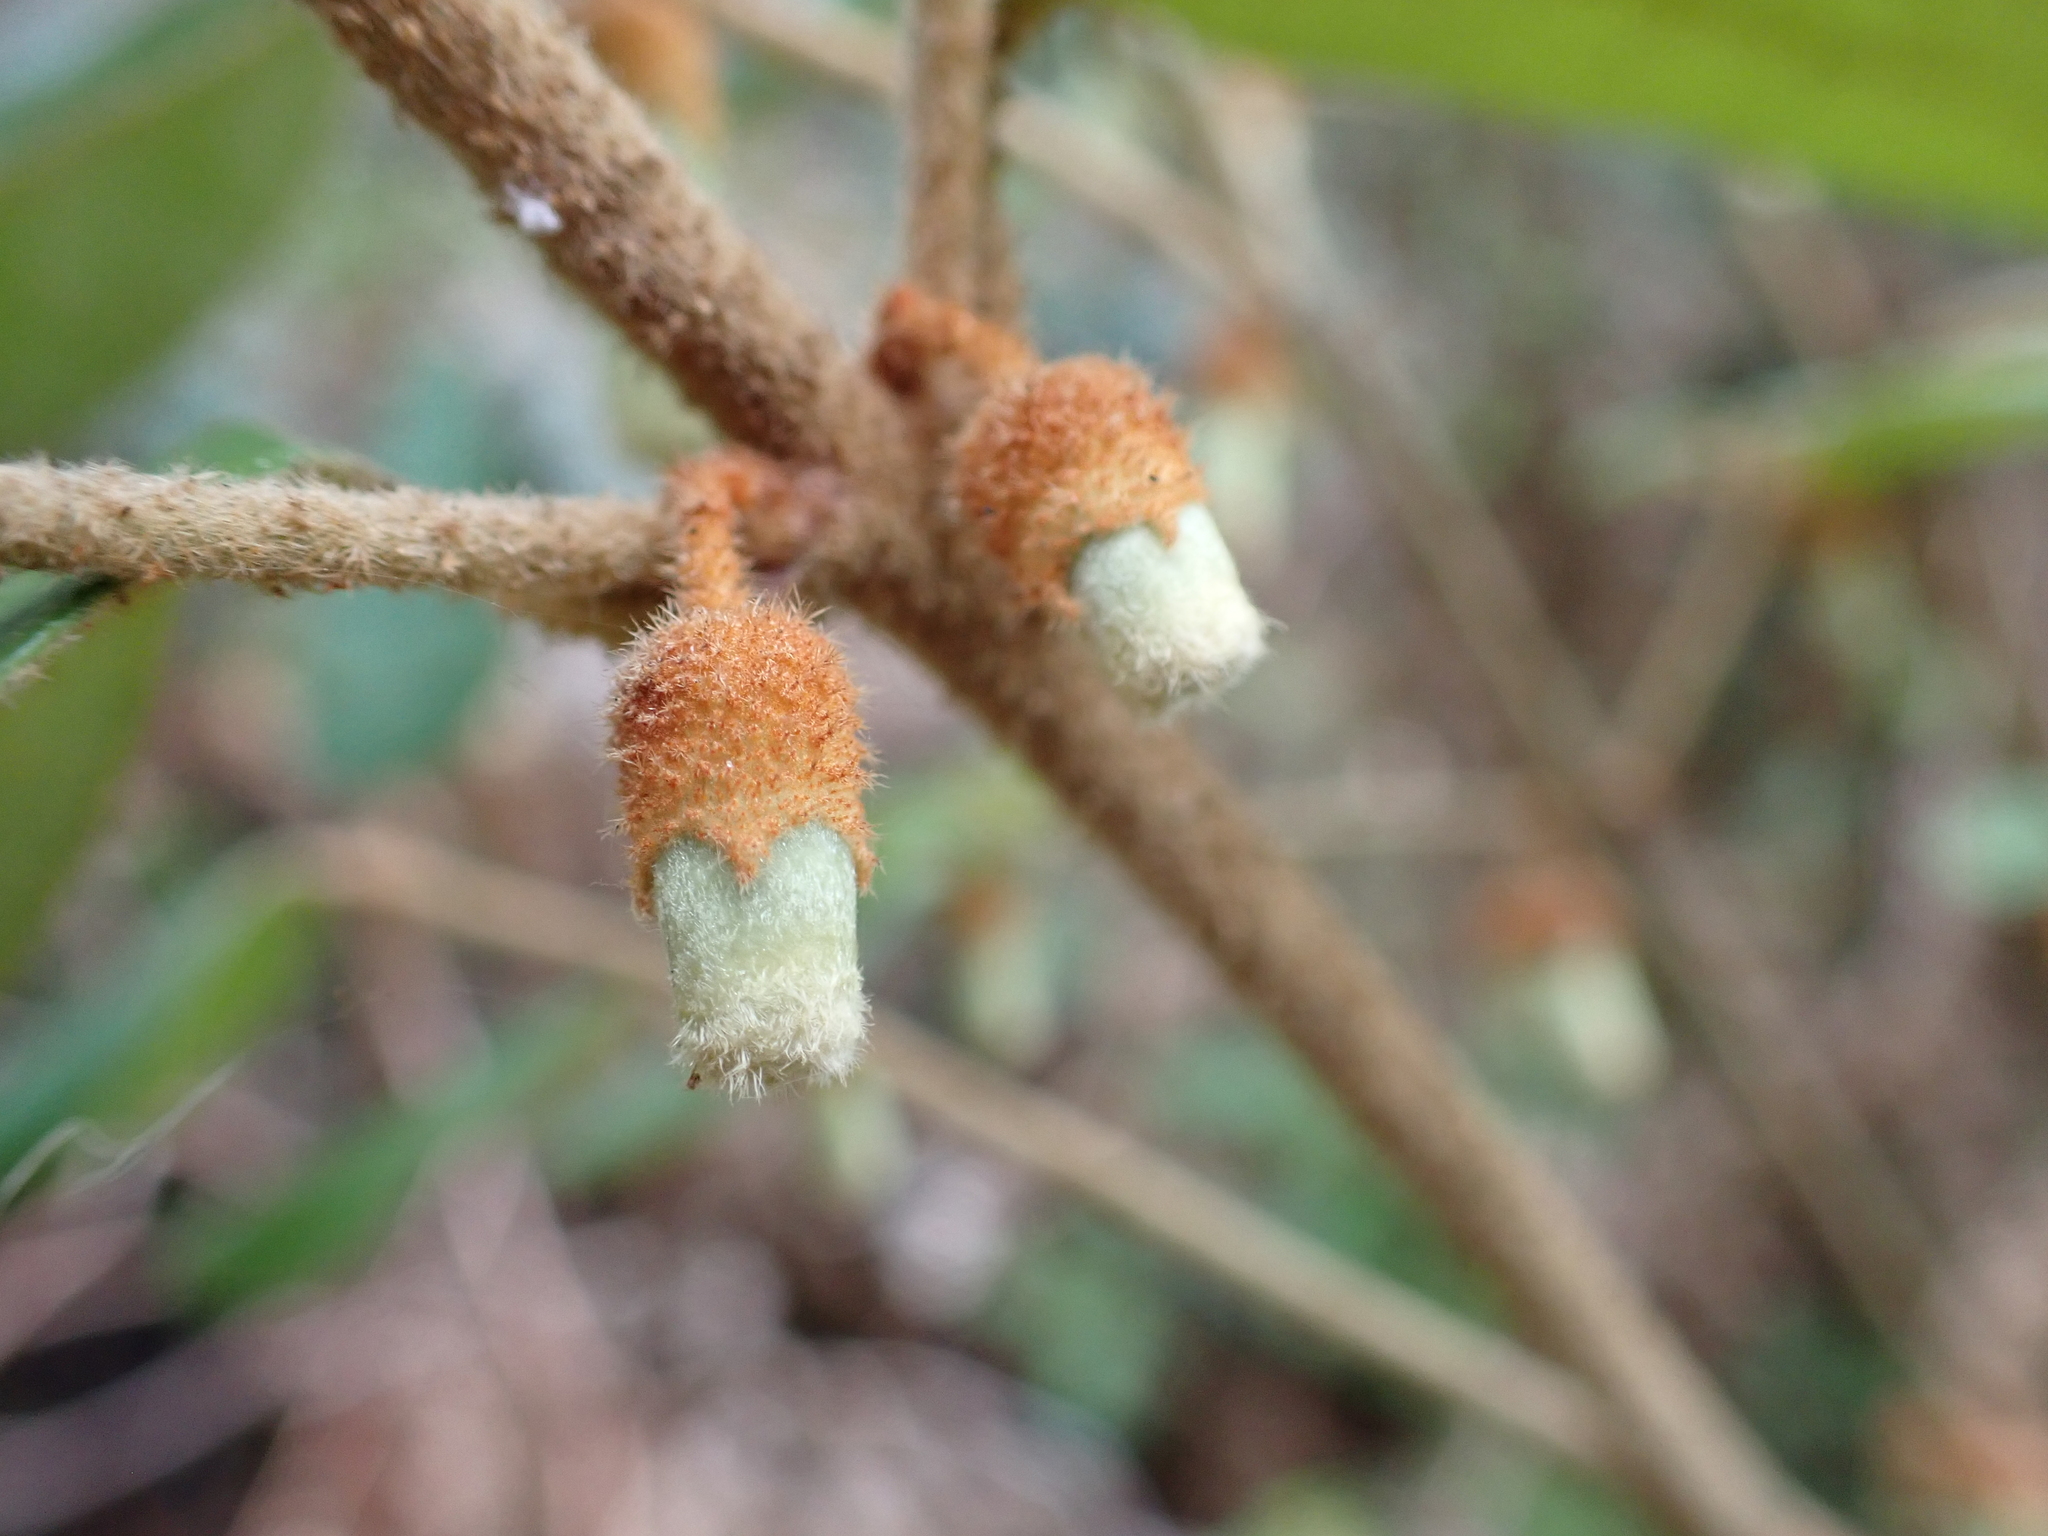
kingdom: Plantae
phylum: Tracheophyta
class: Magnoliopsida
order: Sapindales
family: Rutaceae
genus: Correa
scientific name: Correa lawrenceana
